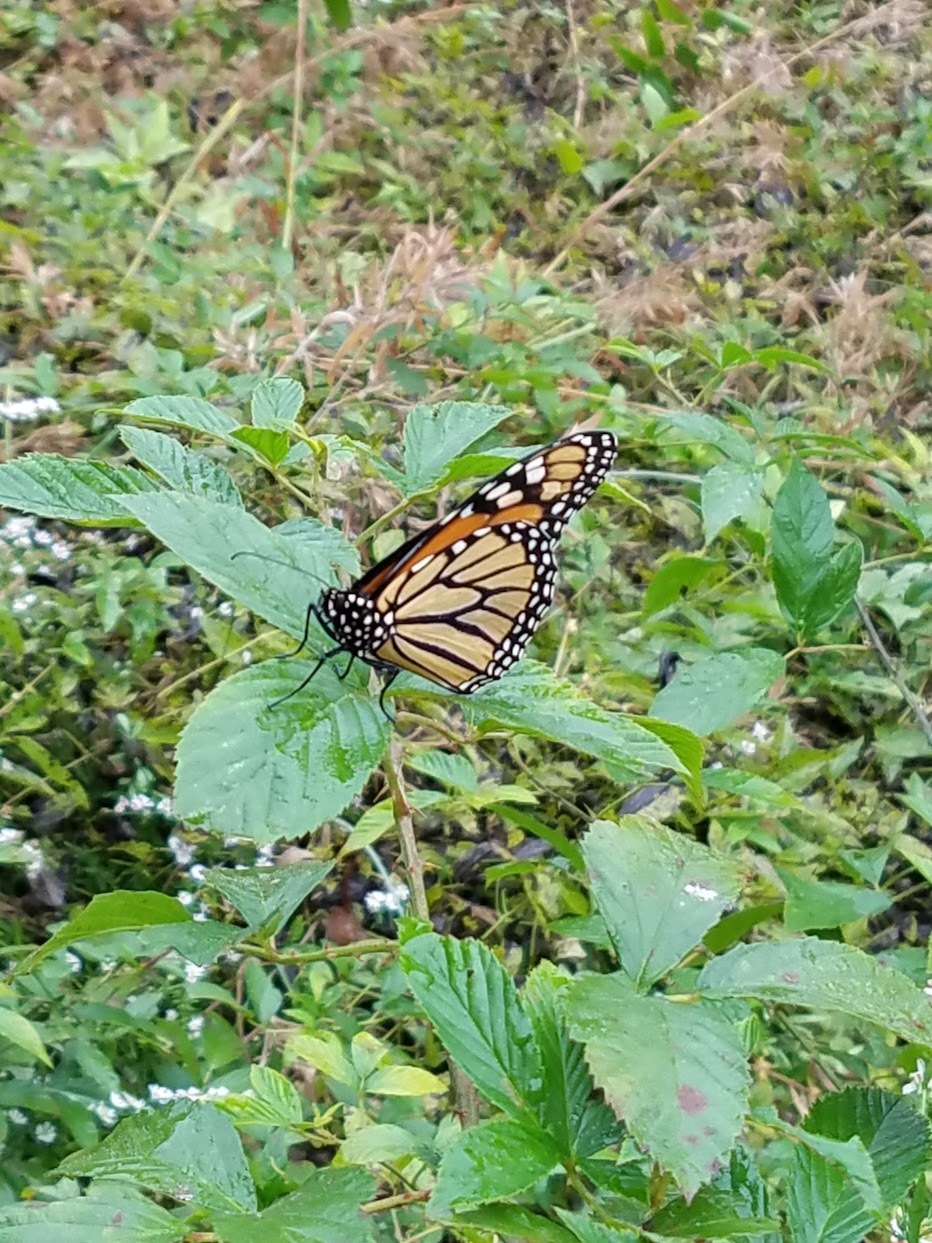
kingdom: Animalia
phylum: Arthropoda
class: Insecta
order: Lepidoptera
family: Nymphalidae
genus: Danaus
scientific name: Danaus plexippus
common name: Monarch
